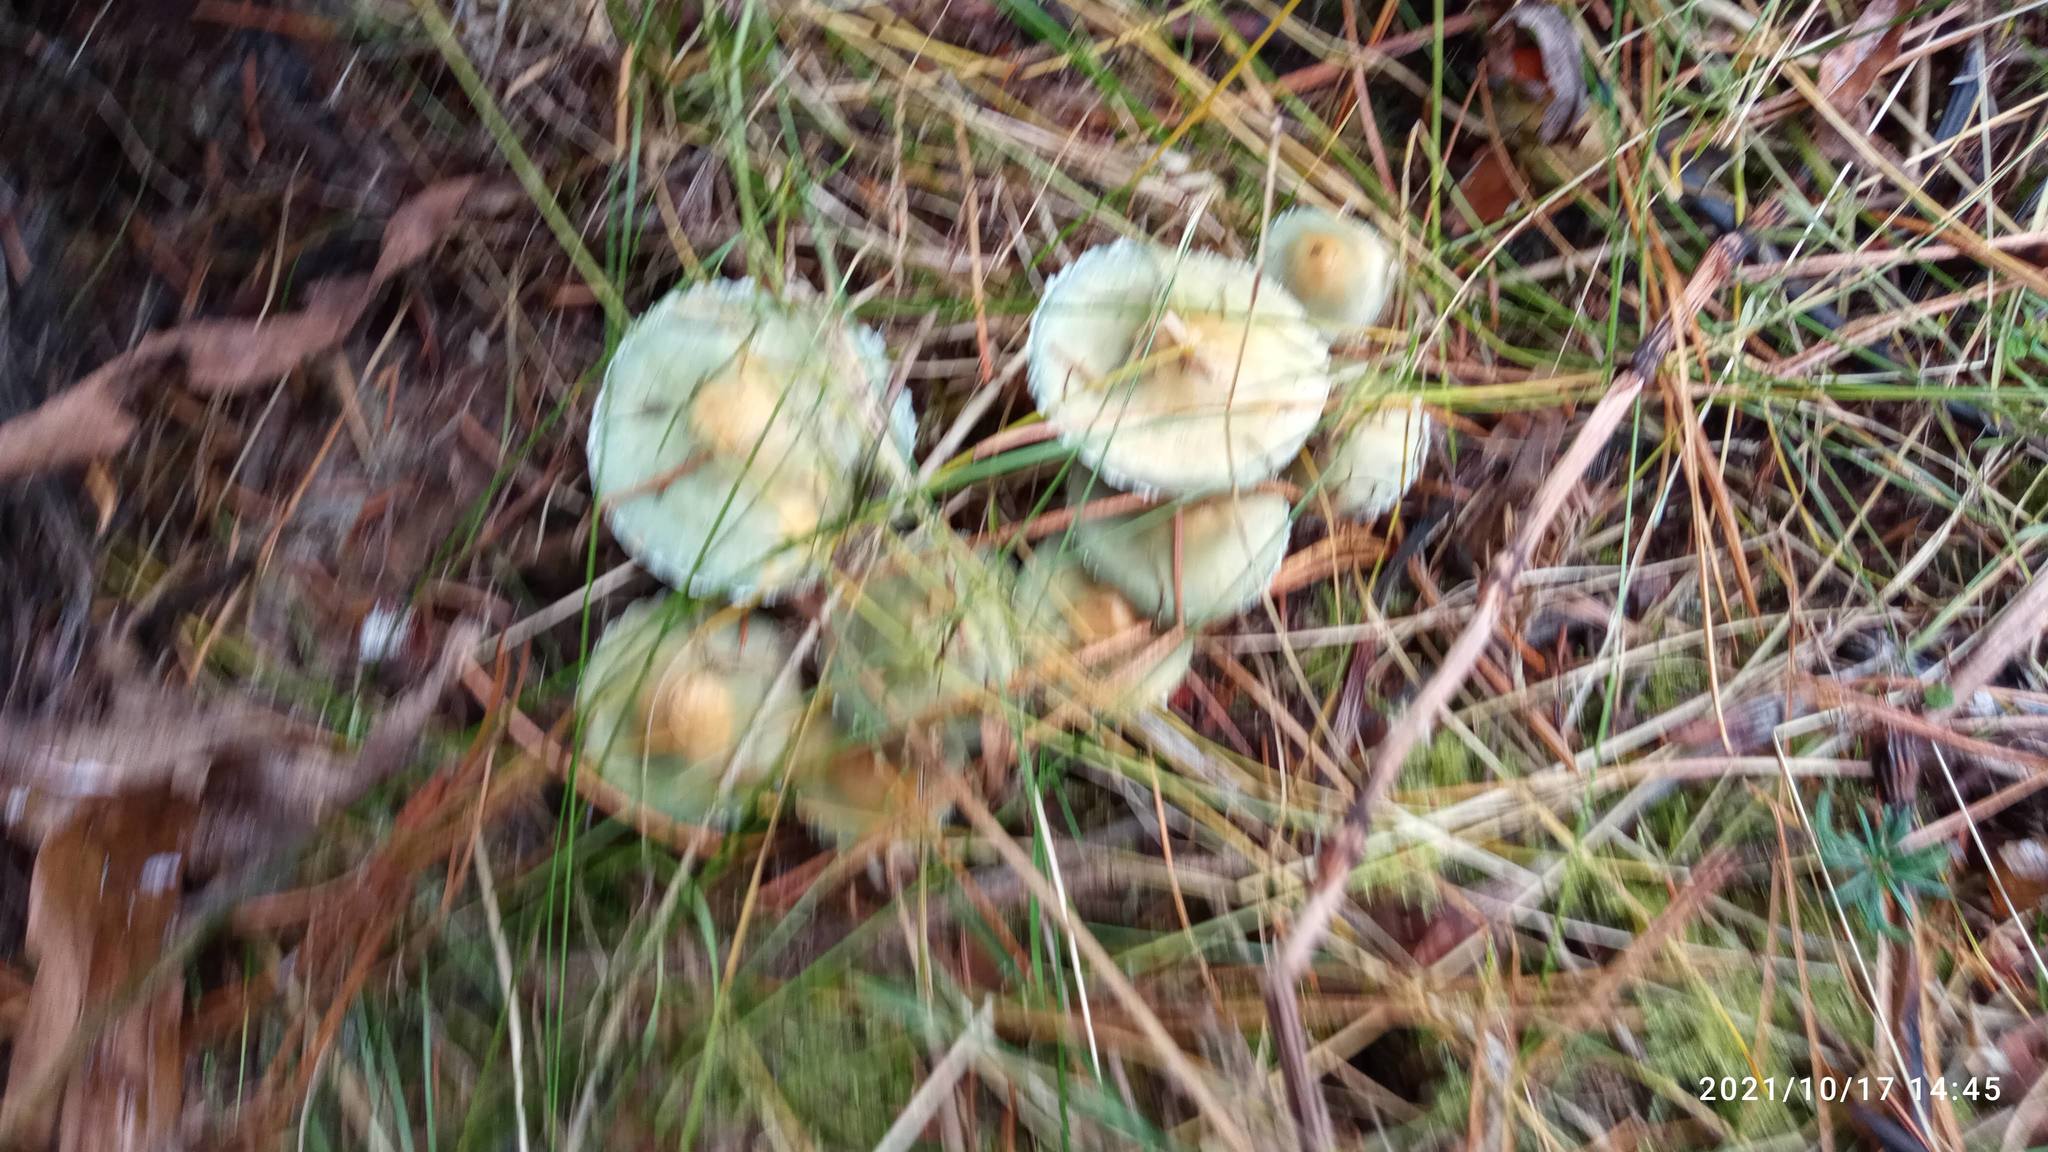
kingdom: Fungi
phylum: Basidiomycota
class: Agaricomycetes
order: Agaricales
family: Strophariaceae
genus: Stropharia
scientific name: Stropharia aeruginosa
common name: Verdigris roundhead
